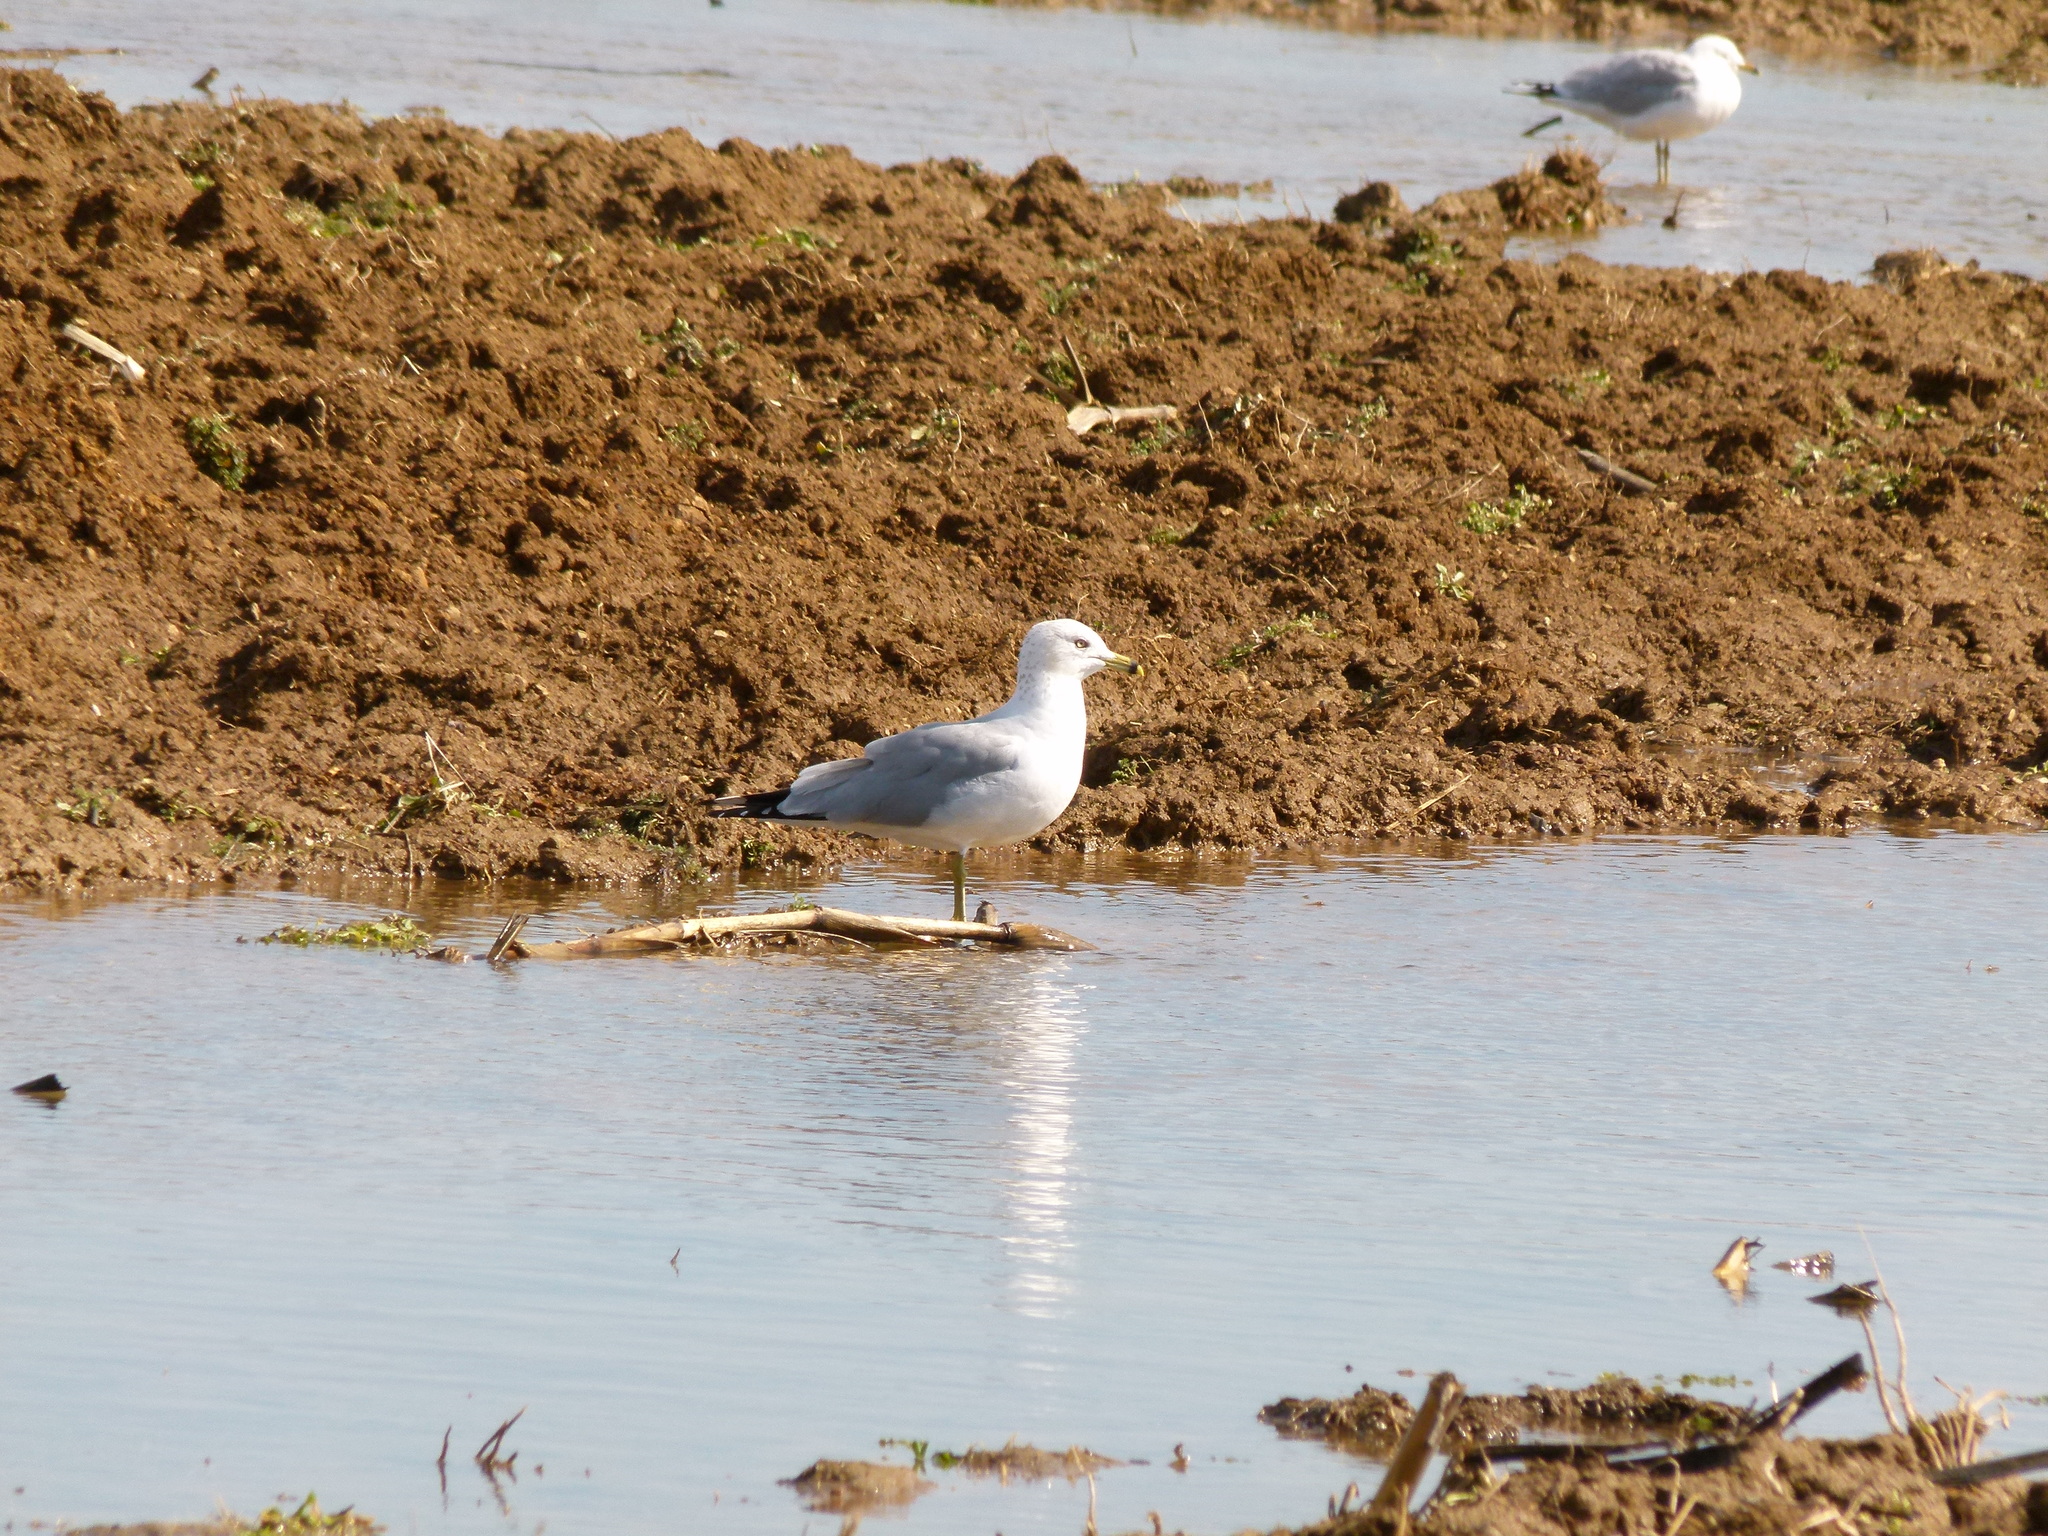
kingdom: Animalia
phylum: Chordata
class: Aves
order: Charadriiformes
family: Laridae
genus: Larus
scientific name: Larus delawarensis
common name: Ring-billed gull
